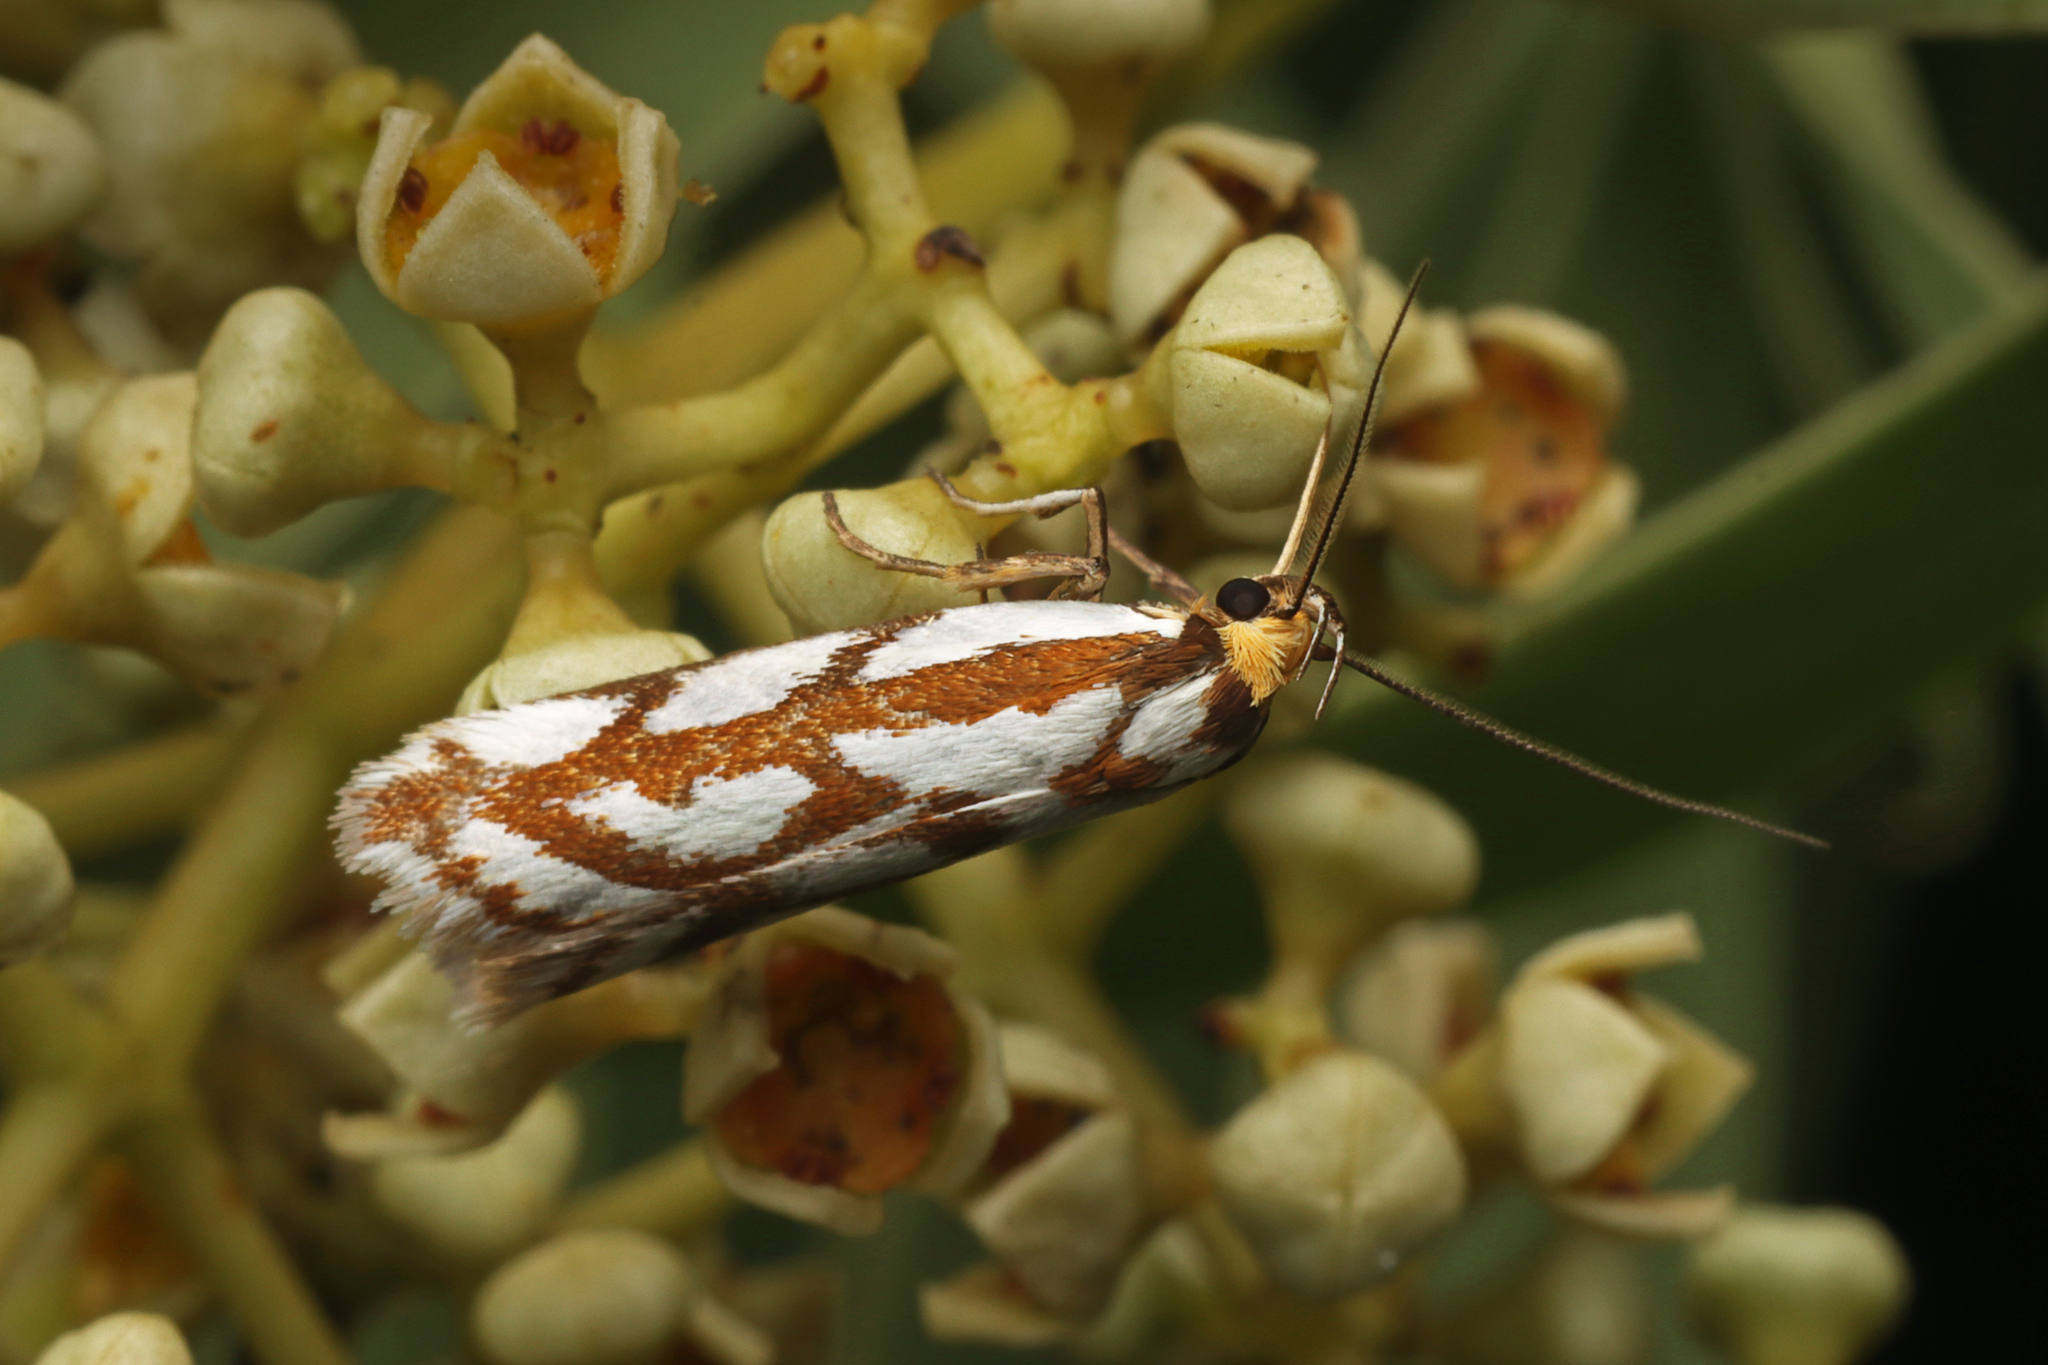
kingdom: Animalia
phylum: Arthropoda
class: Insecta
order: Lepidoptera
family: Oecophoridae
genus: Myrascia
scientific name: Myrascia bracteatella
